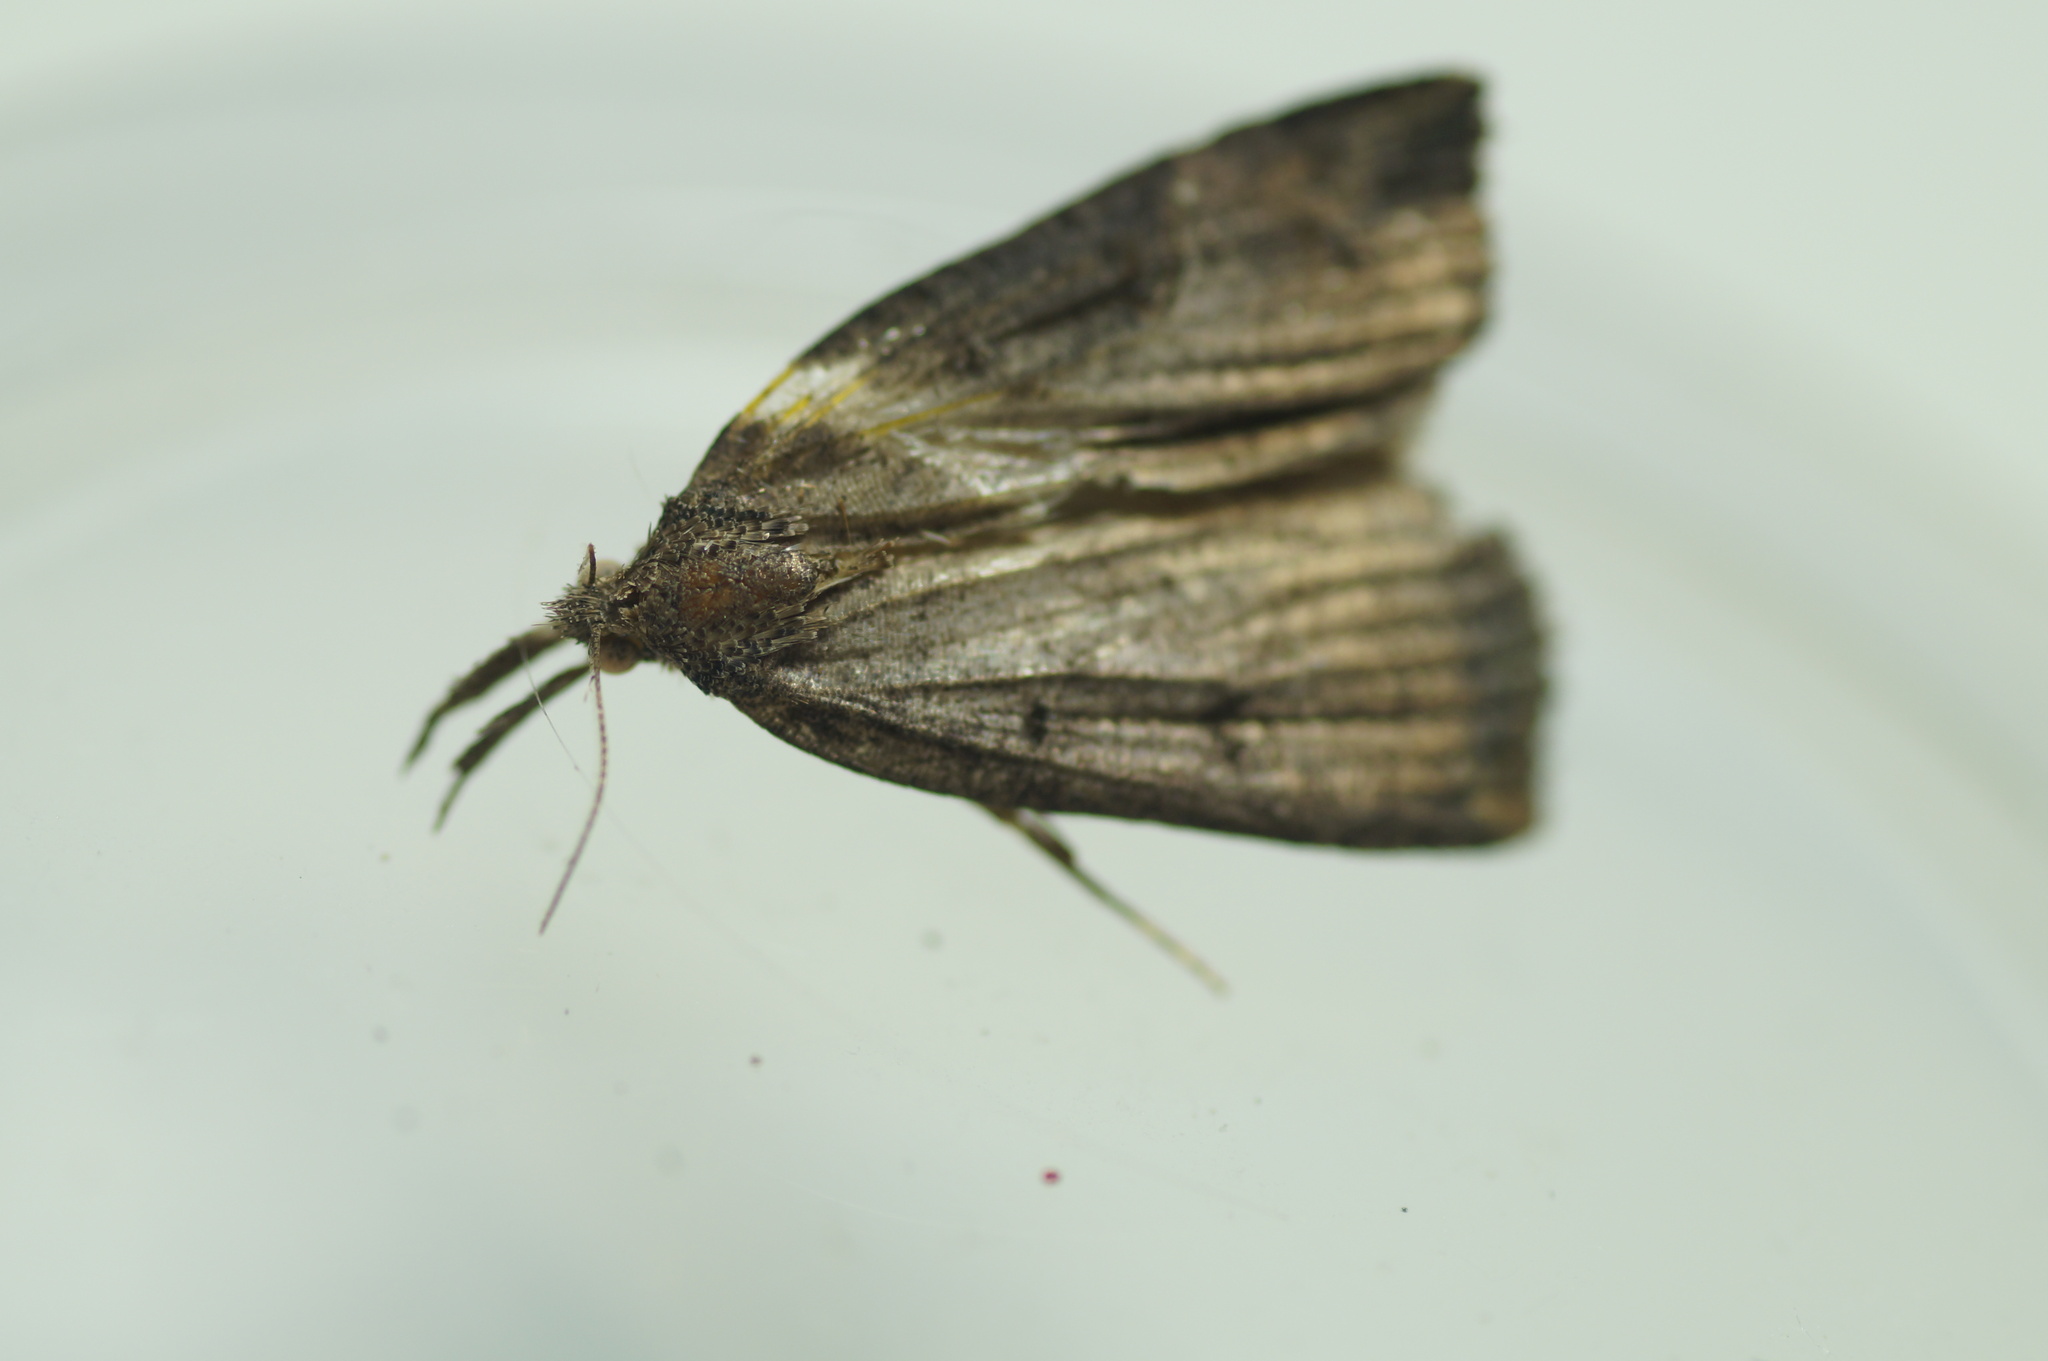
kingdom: Animalia
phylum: Arthropoda
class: Insecta
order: Lepidoptera
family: Erebidae
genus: Hypena
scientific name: Hypena rostralis
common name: Buttoned snout
